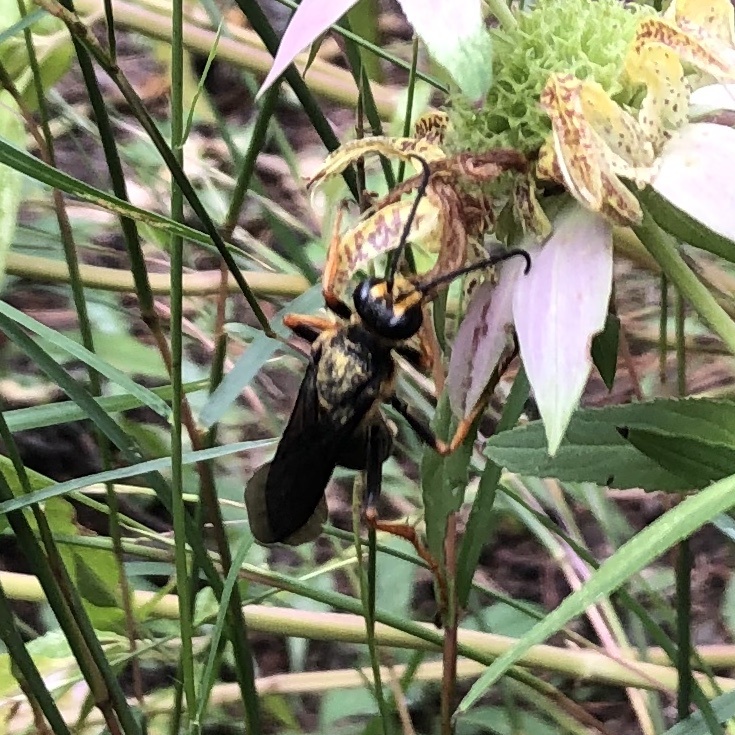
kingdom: Animalia
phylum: Arthropoda
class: Insecta
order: Hymenoptera
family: Sphecidae
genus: Sphex
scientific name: Sphex flavovestitus
